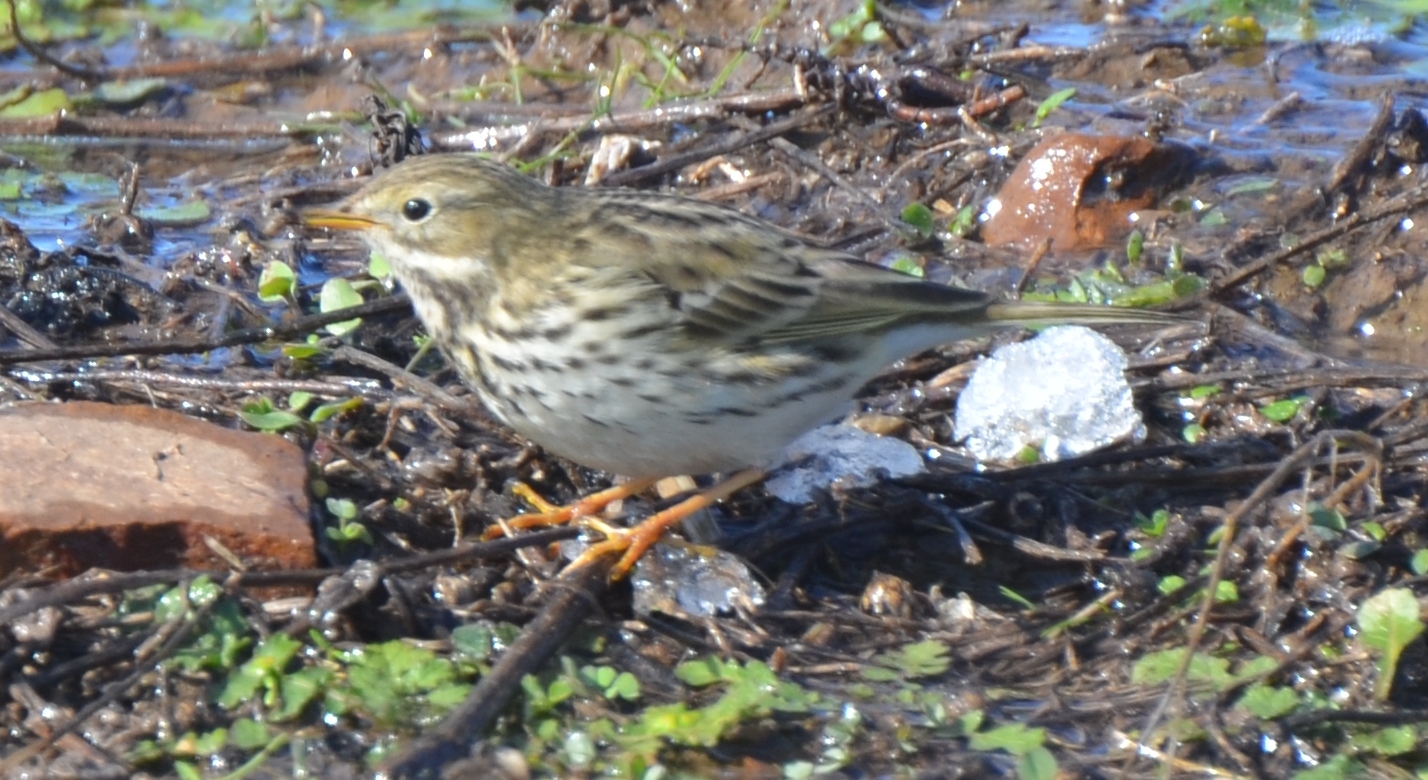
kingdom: Animalia
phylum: Chordata
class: Aves
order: Passeriformes
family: Motacillidae
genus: Anthus
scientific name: Anthus pratensis
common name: Meadow pipit
